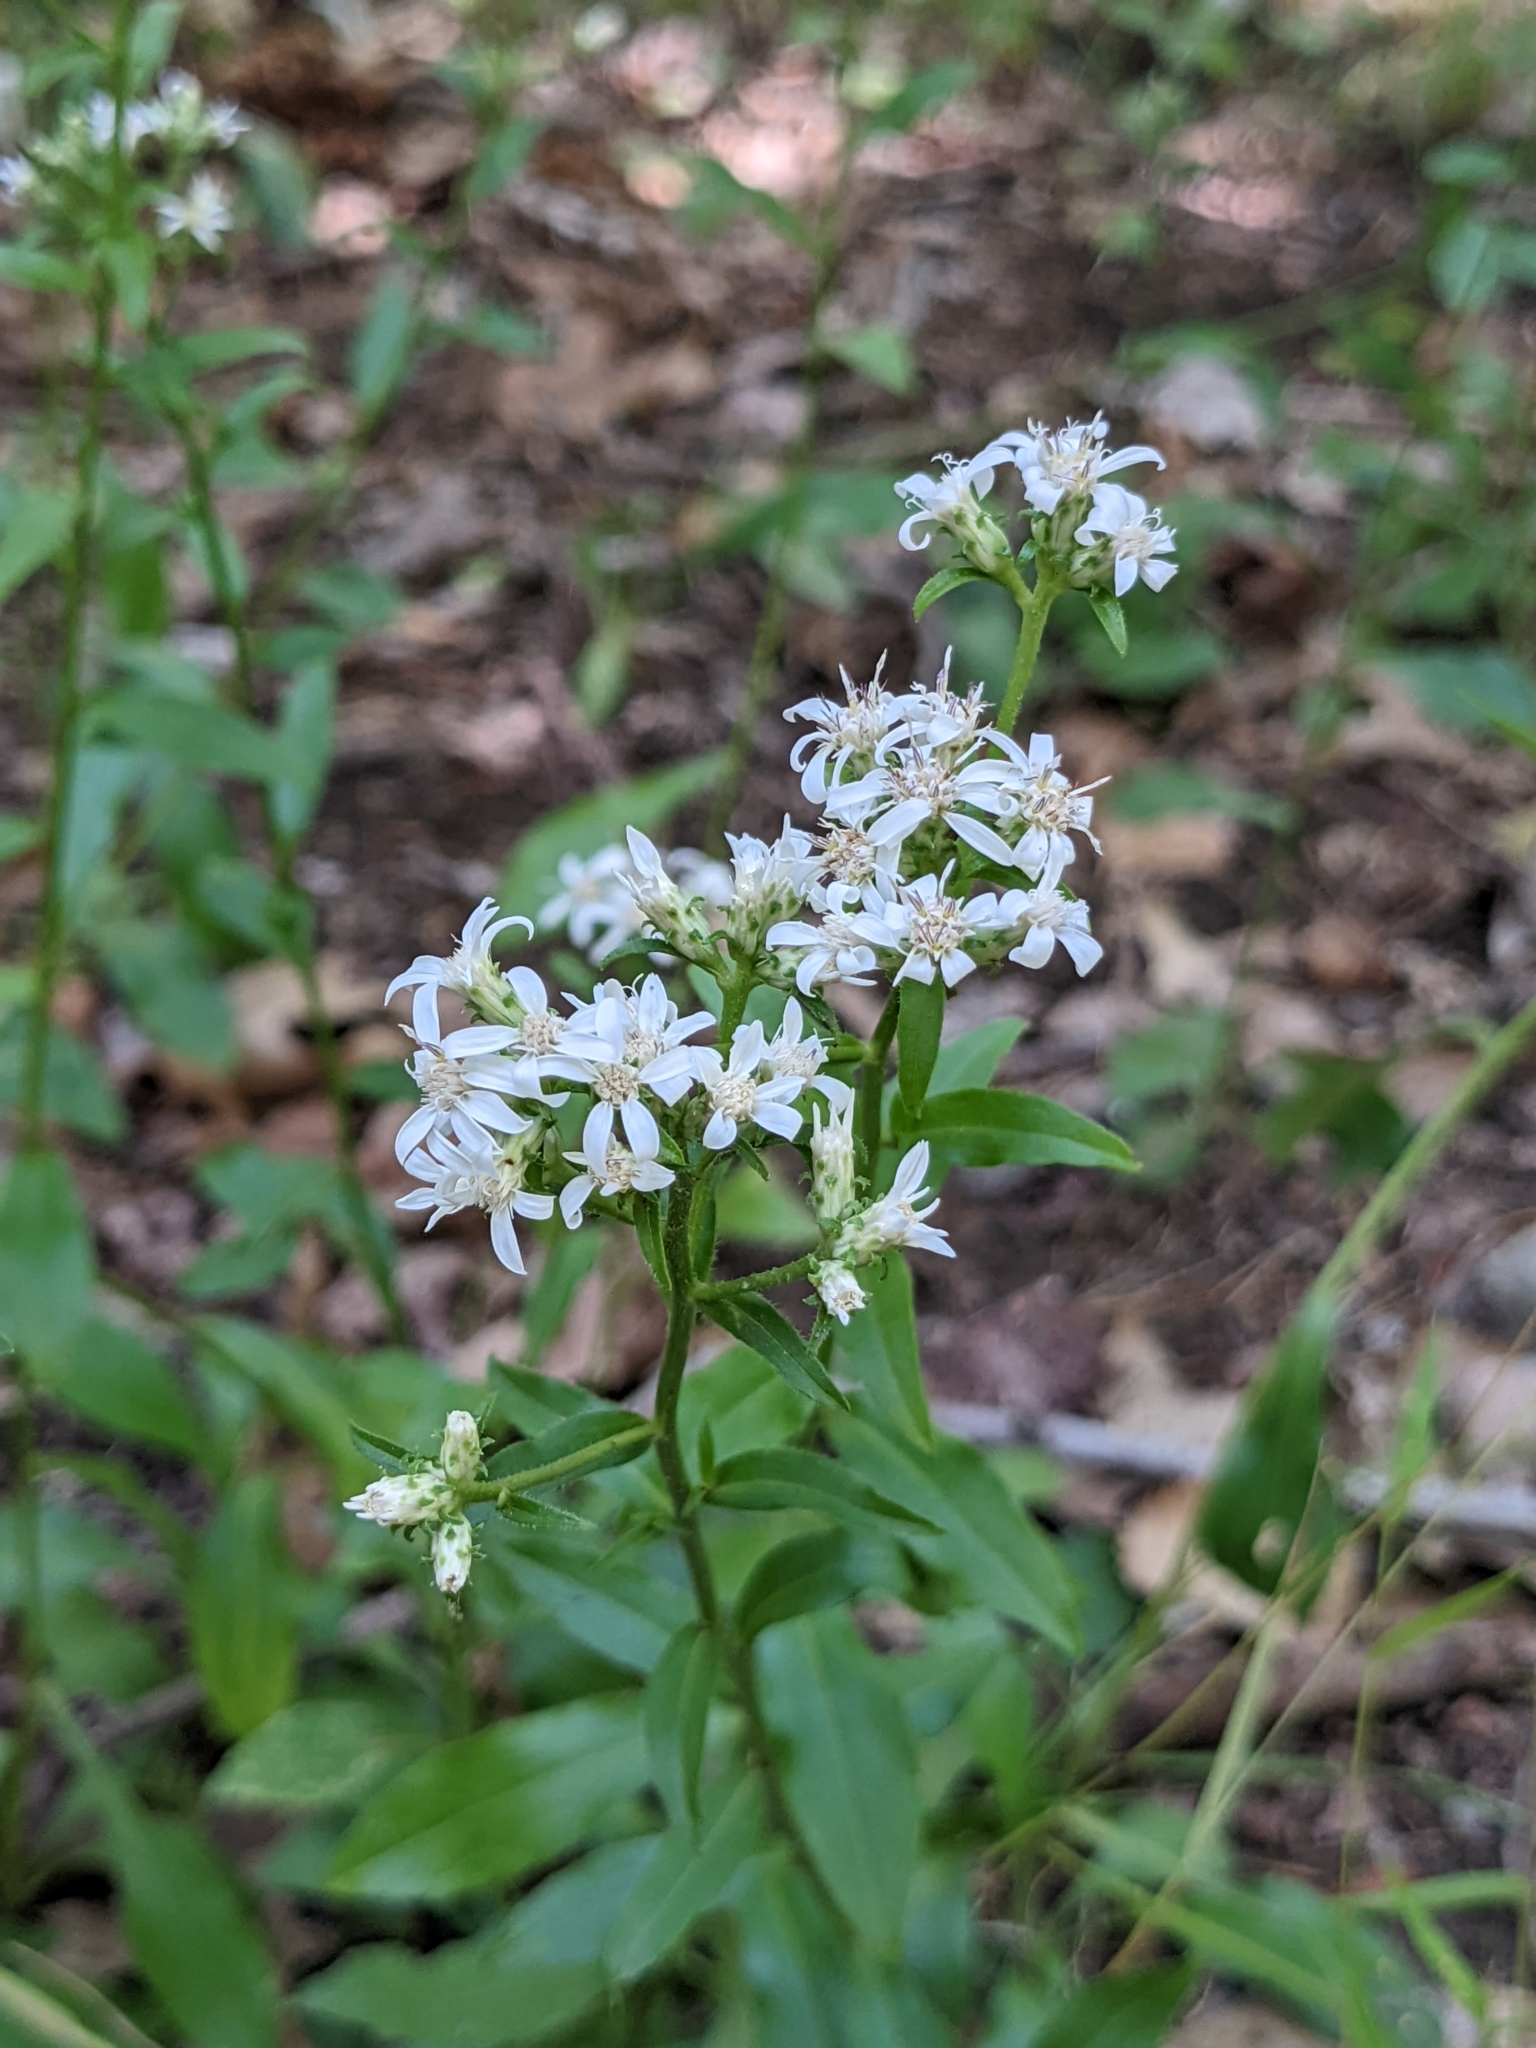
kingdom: Plantae
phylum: Tracheophyta
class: Magnoliopsida
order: Asterales
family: Asteraceae
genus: Sericocarpus
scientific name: Sericocarpus asteroides
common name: Toothed white-top aster
